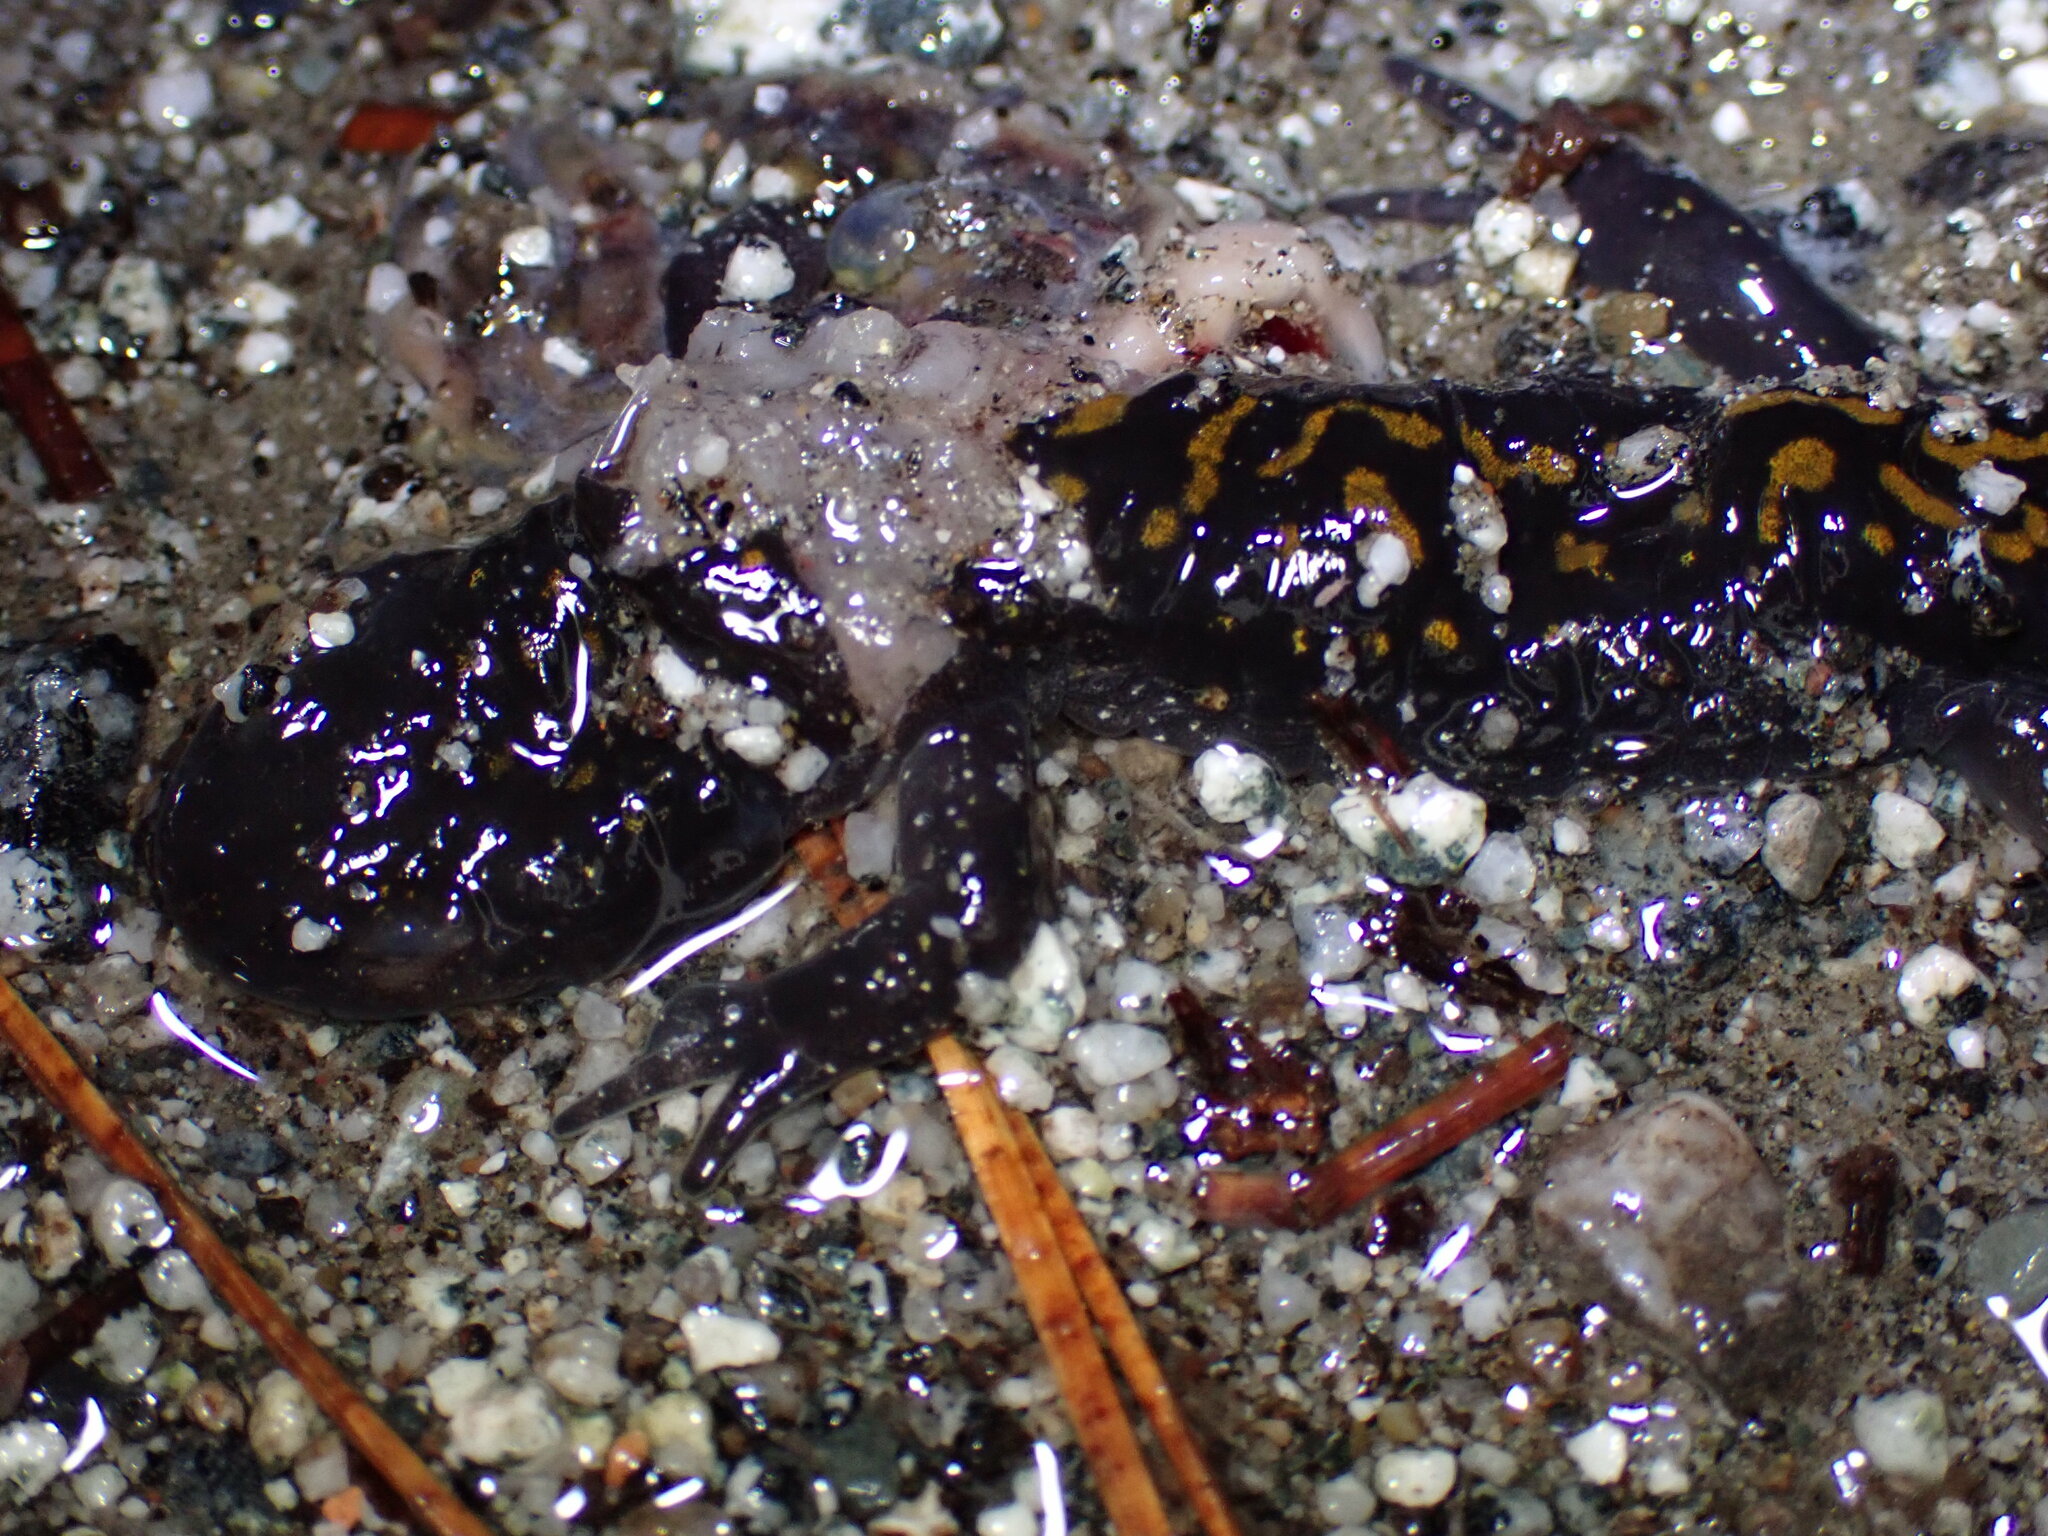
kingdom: Animalia
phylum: Chordata
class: Amphibia
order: Caudata
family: Ambystomatidae
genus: Ambystoma
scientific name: Ambystoma macrodactylum
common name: Long-toed salamander
